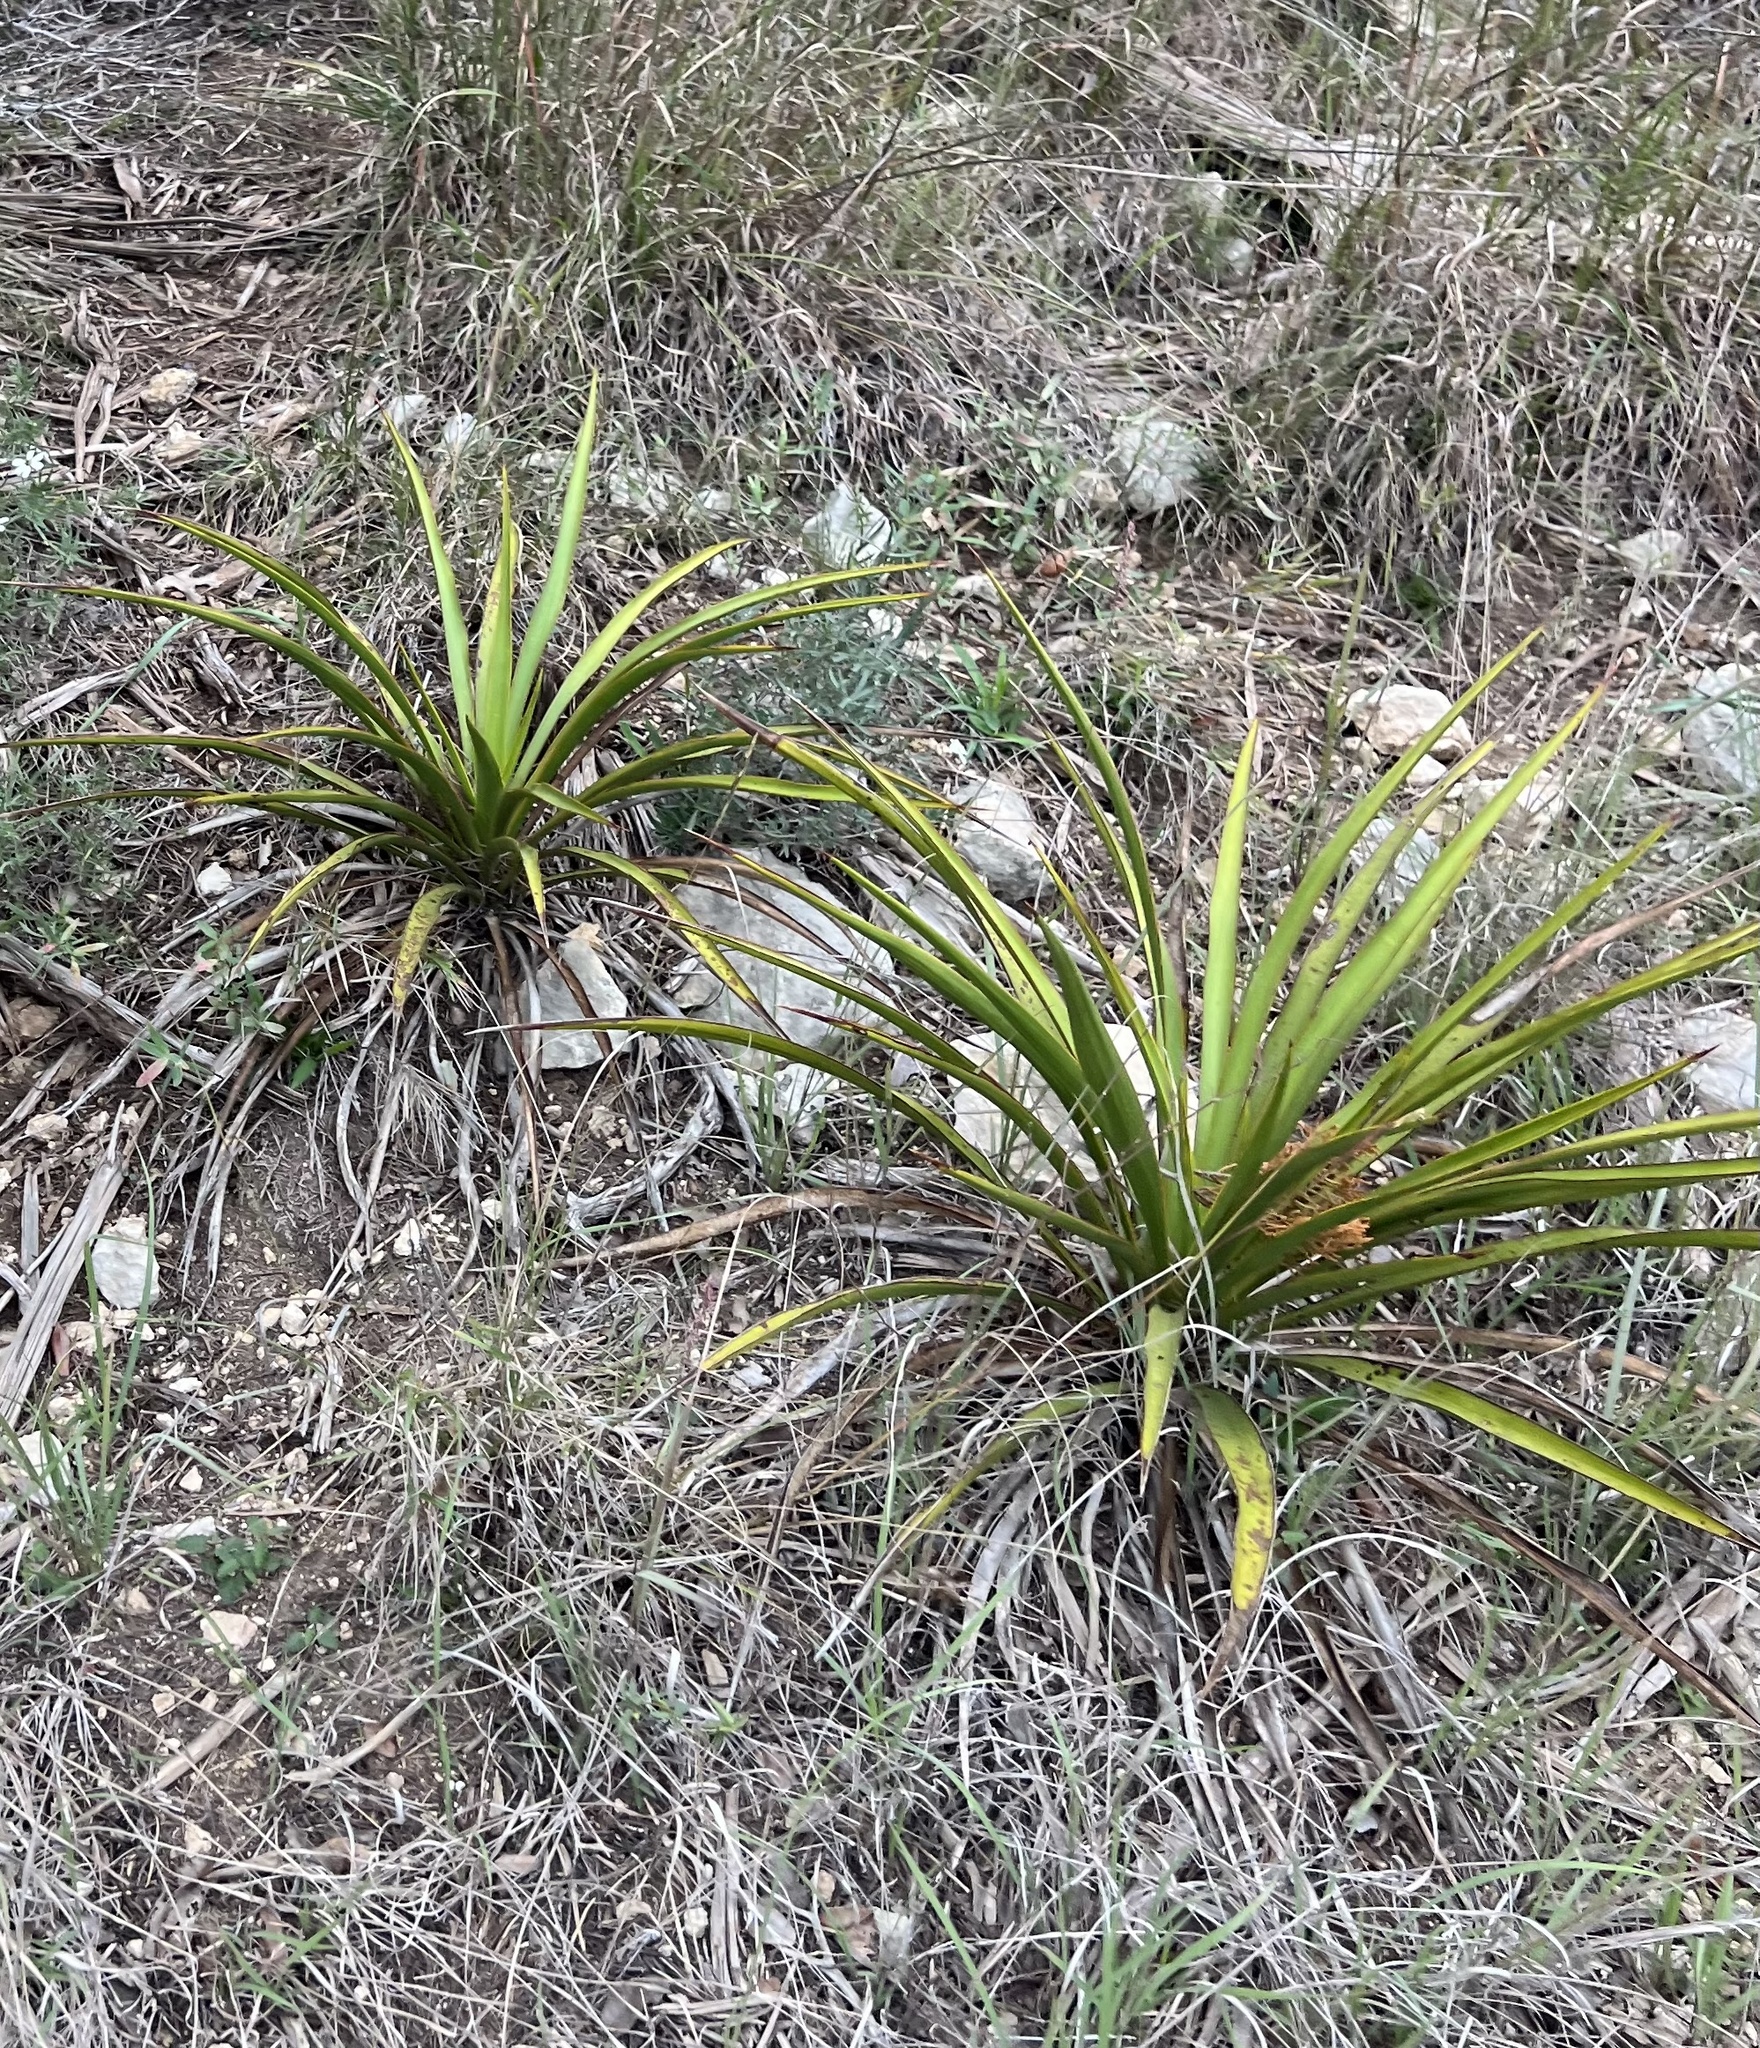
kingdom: Plantae
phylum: Tracheophyta
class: Liliopsida
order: Asparagales
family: Asparagaceae
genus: Yucca
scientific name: Yucca rupicola
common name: Twisted-leaf spanish-dagger
